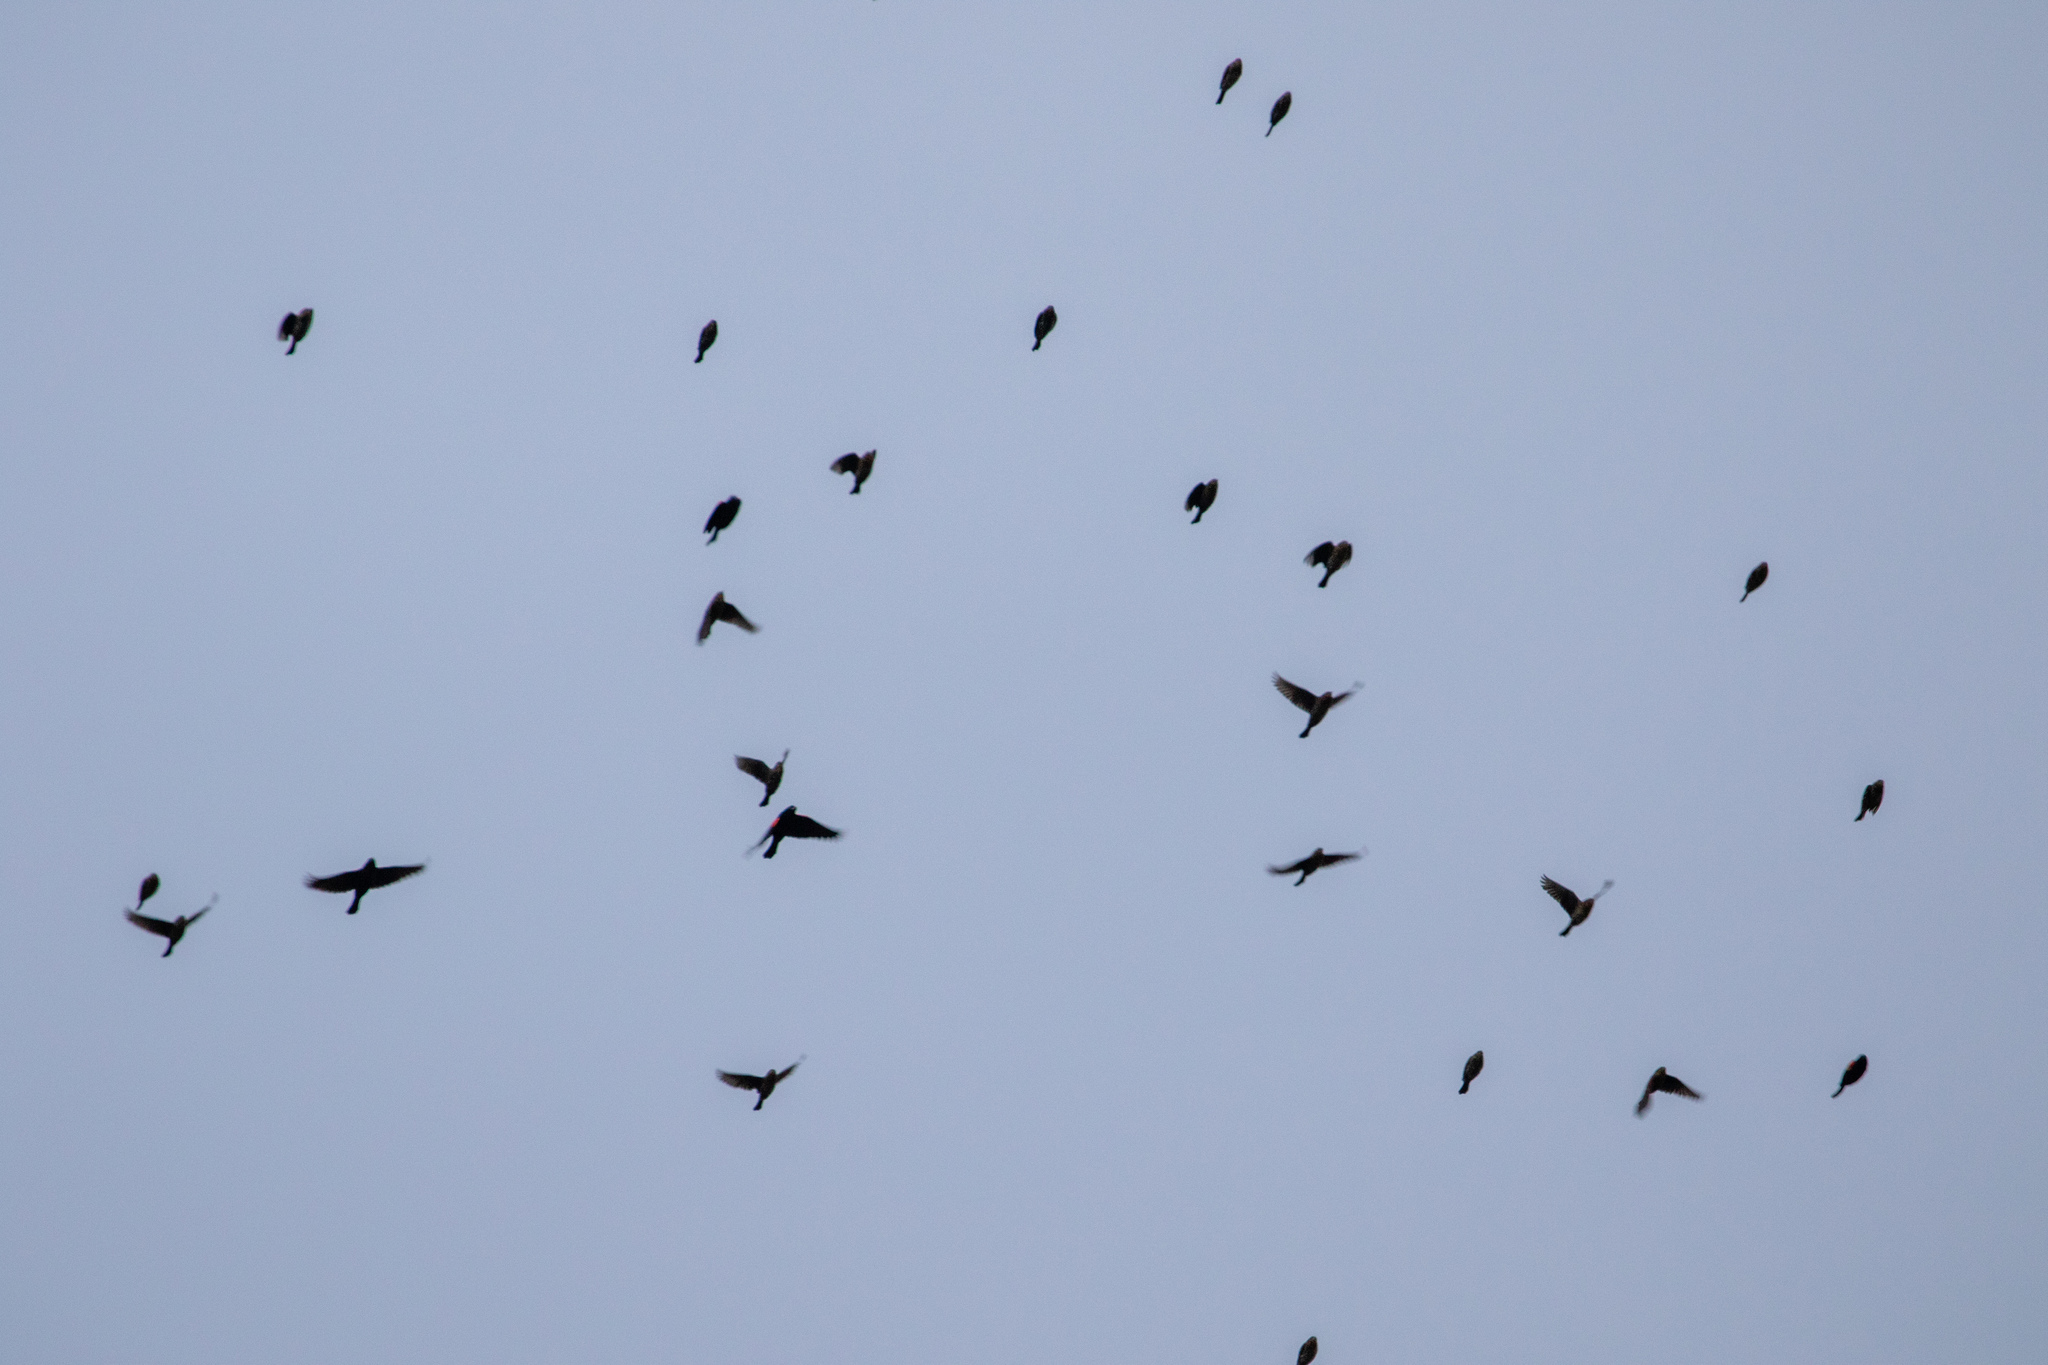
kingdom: Animalia
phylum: Chordata
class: Aves
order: Passeriformes
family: Icteridae
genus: Agelaius
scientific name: Agelaius phoeniceus
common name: Red-winged blackbird
